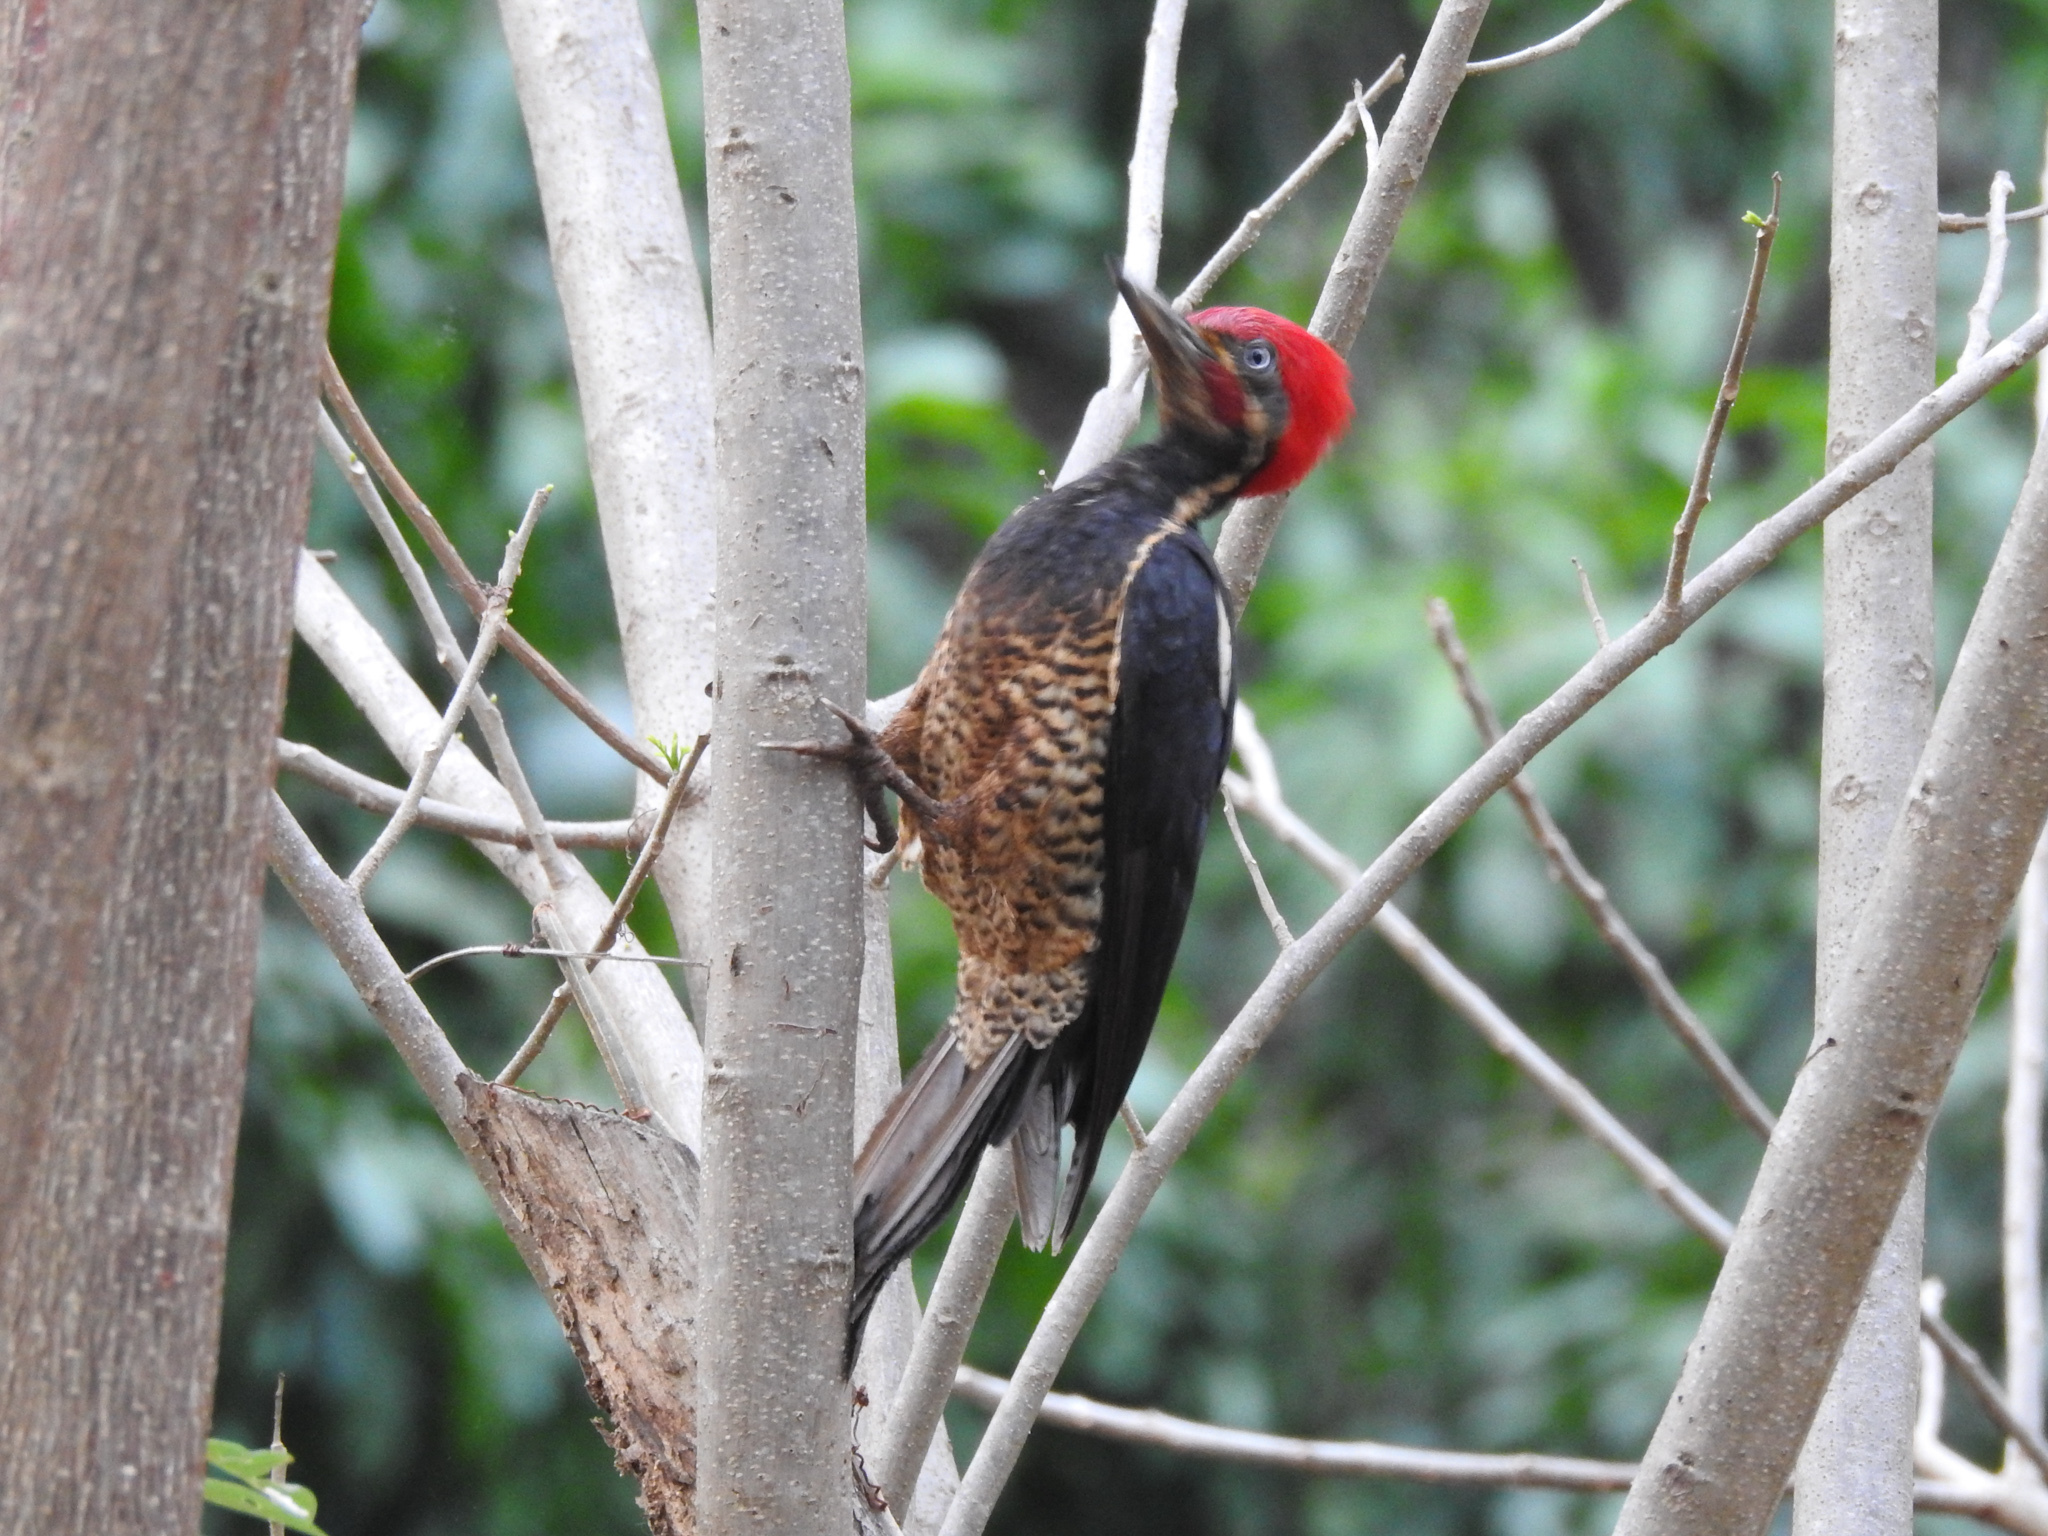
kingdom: Animalia
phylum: Chordata
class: Aves
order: Piciformes
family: Picidae
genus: Dryocopus
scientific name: Dryocopus lineatus
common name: Lineated woodpecker
